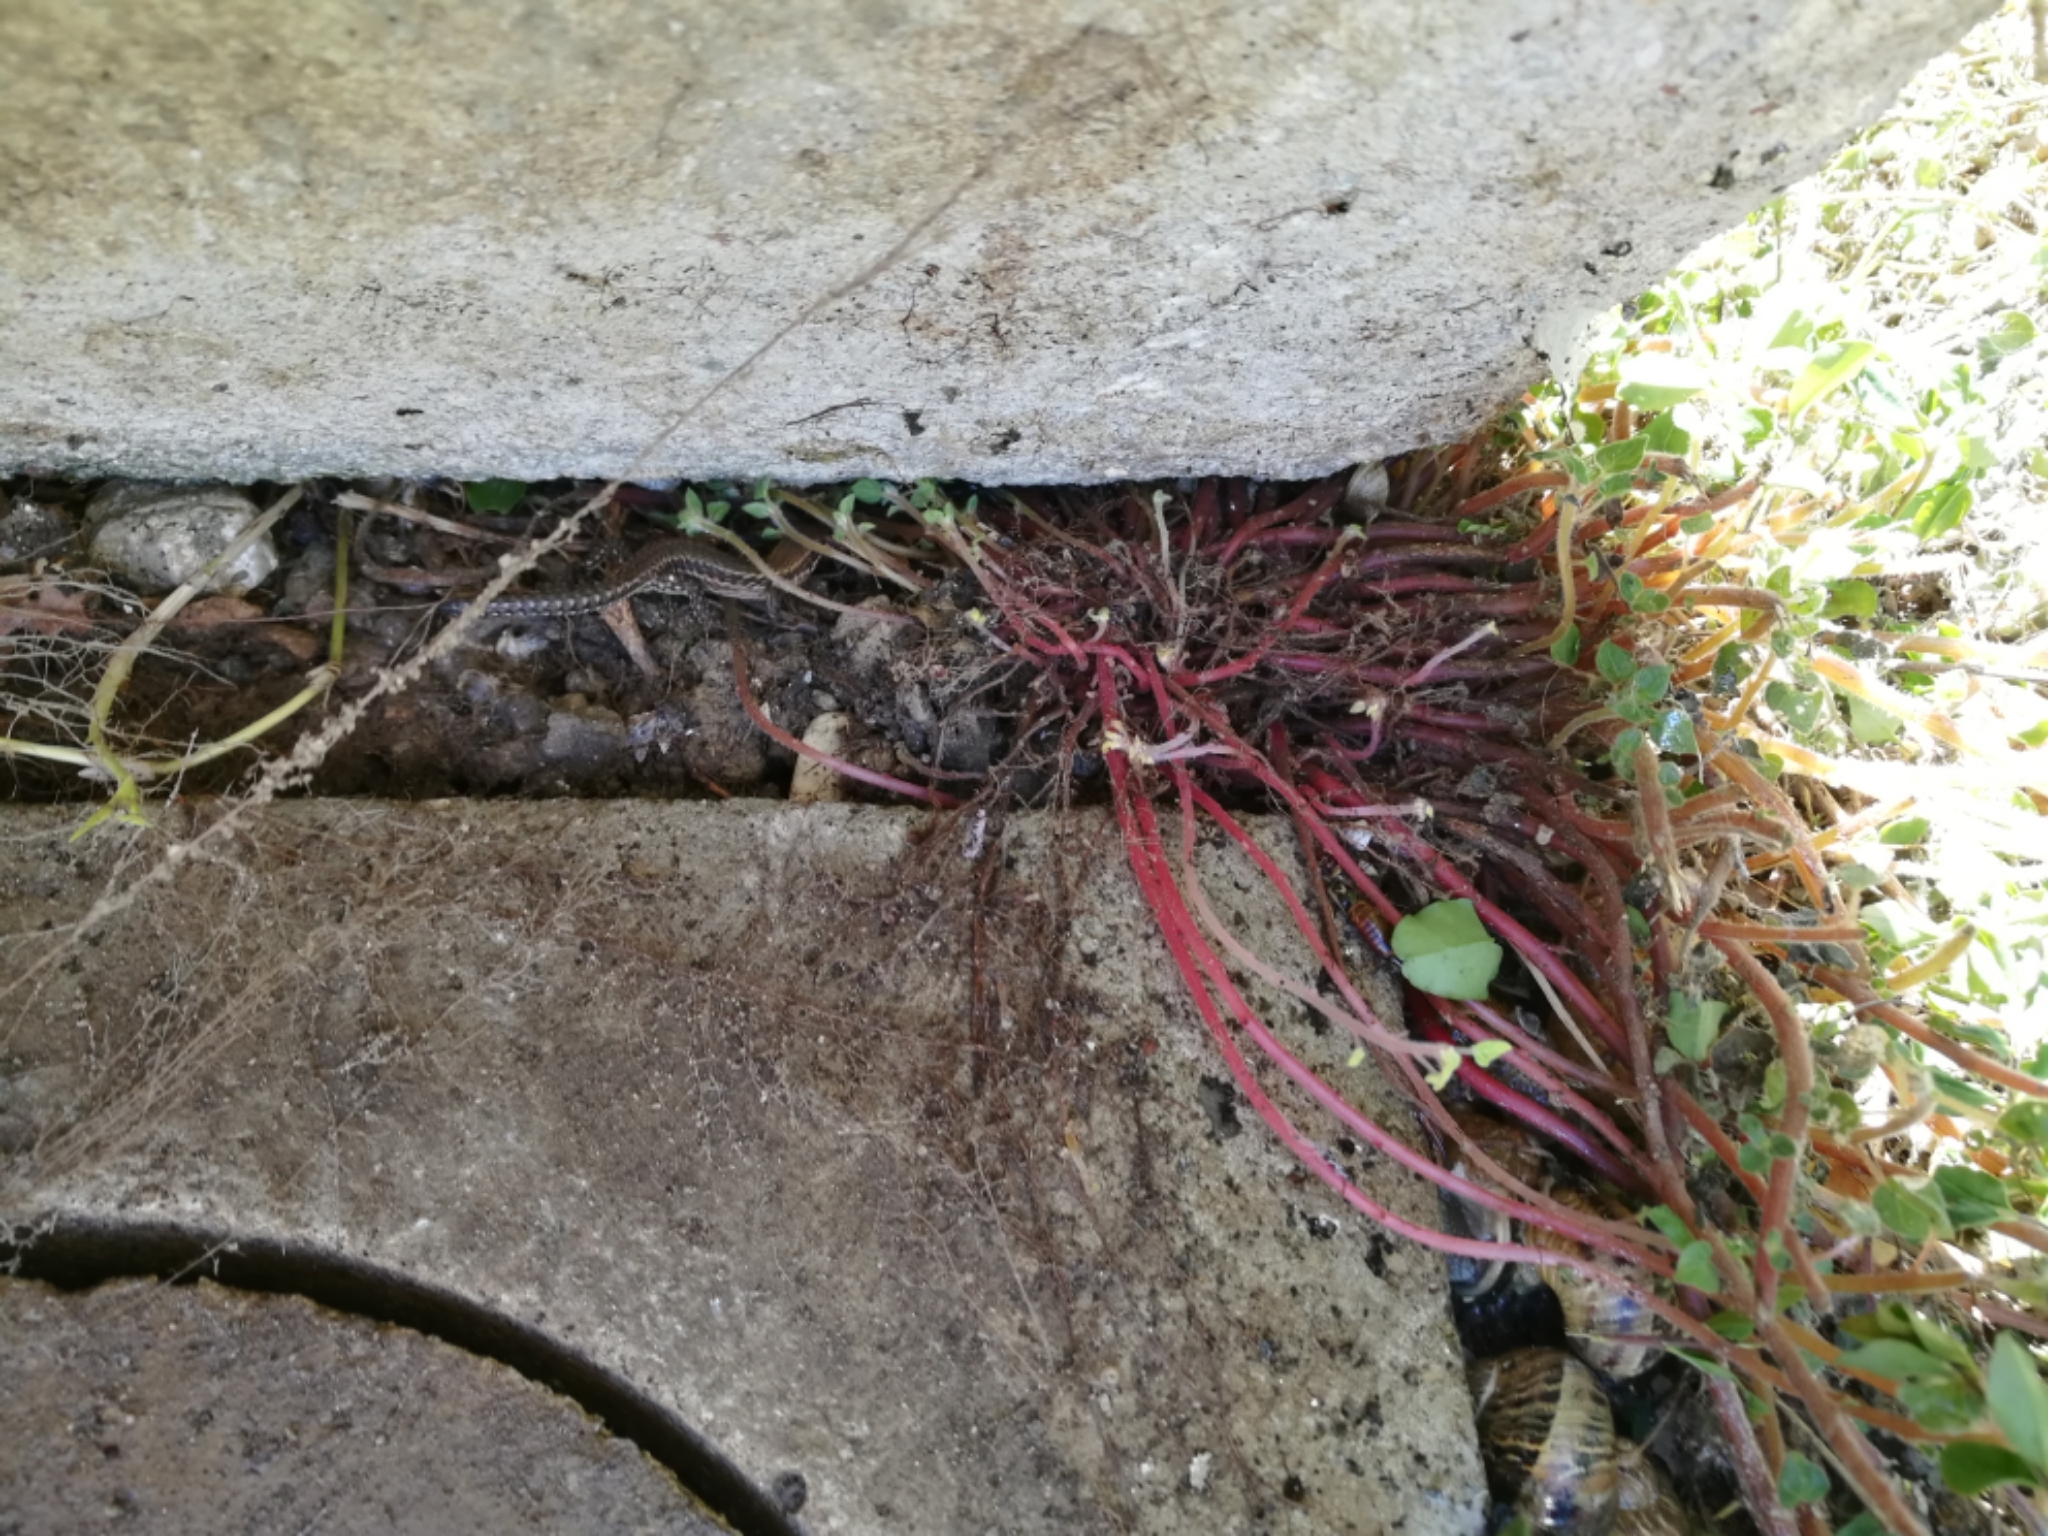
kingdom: Animalia
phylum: Chordata
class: Squamata
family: Lacertidae
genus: Podarcis
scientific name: Podarcis muralis
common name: Common wall lizard
